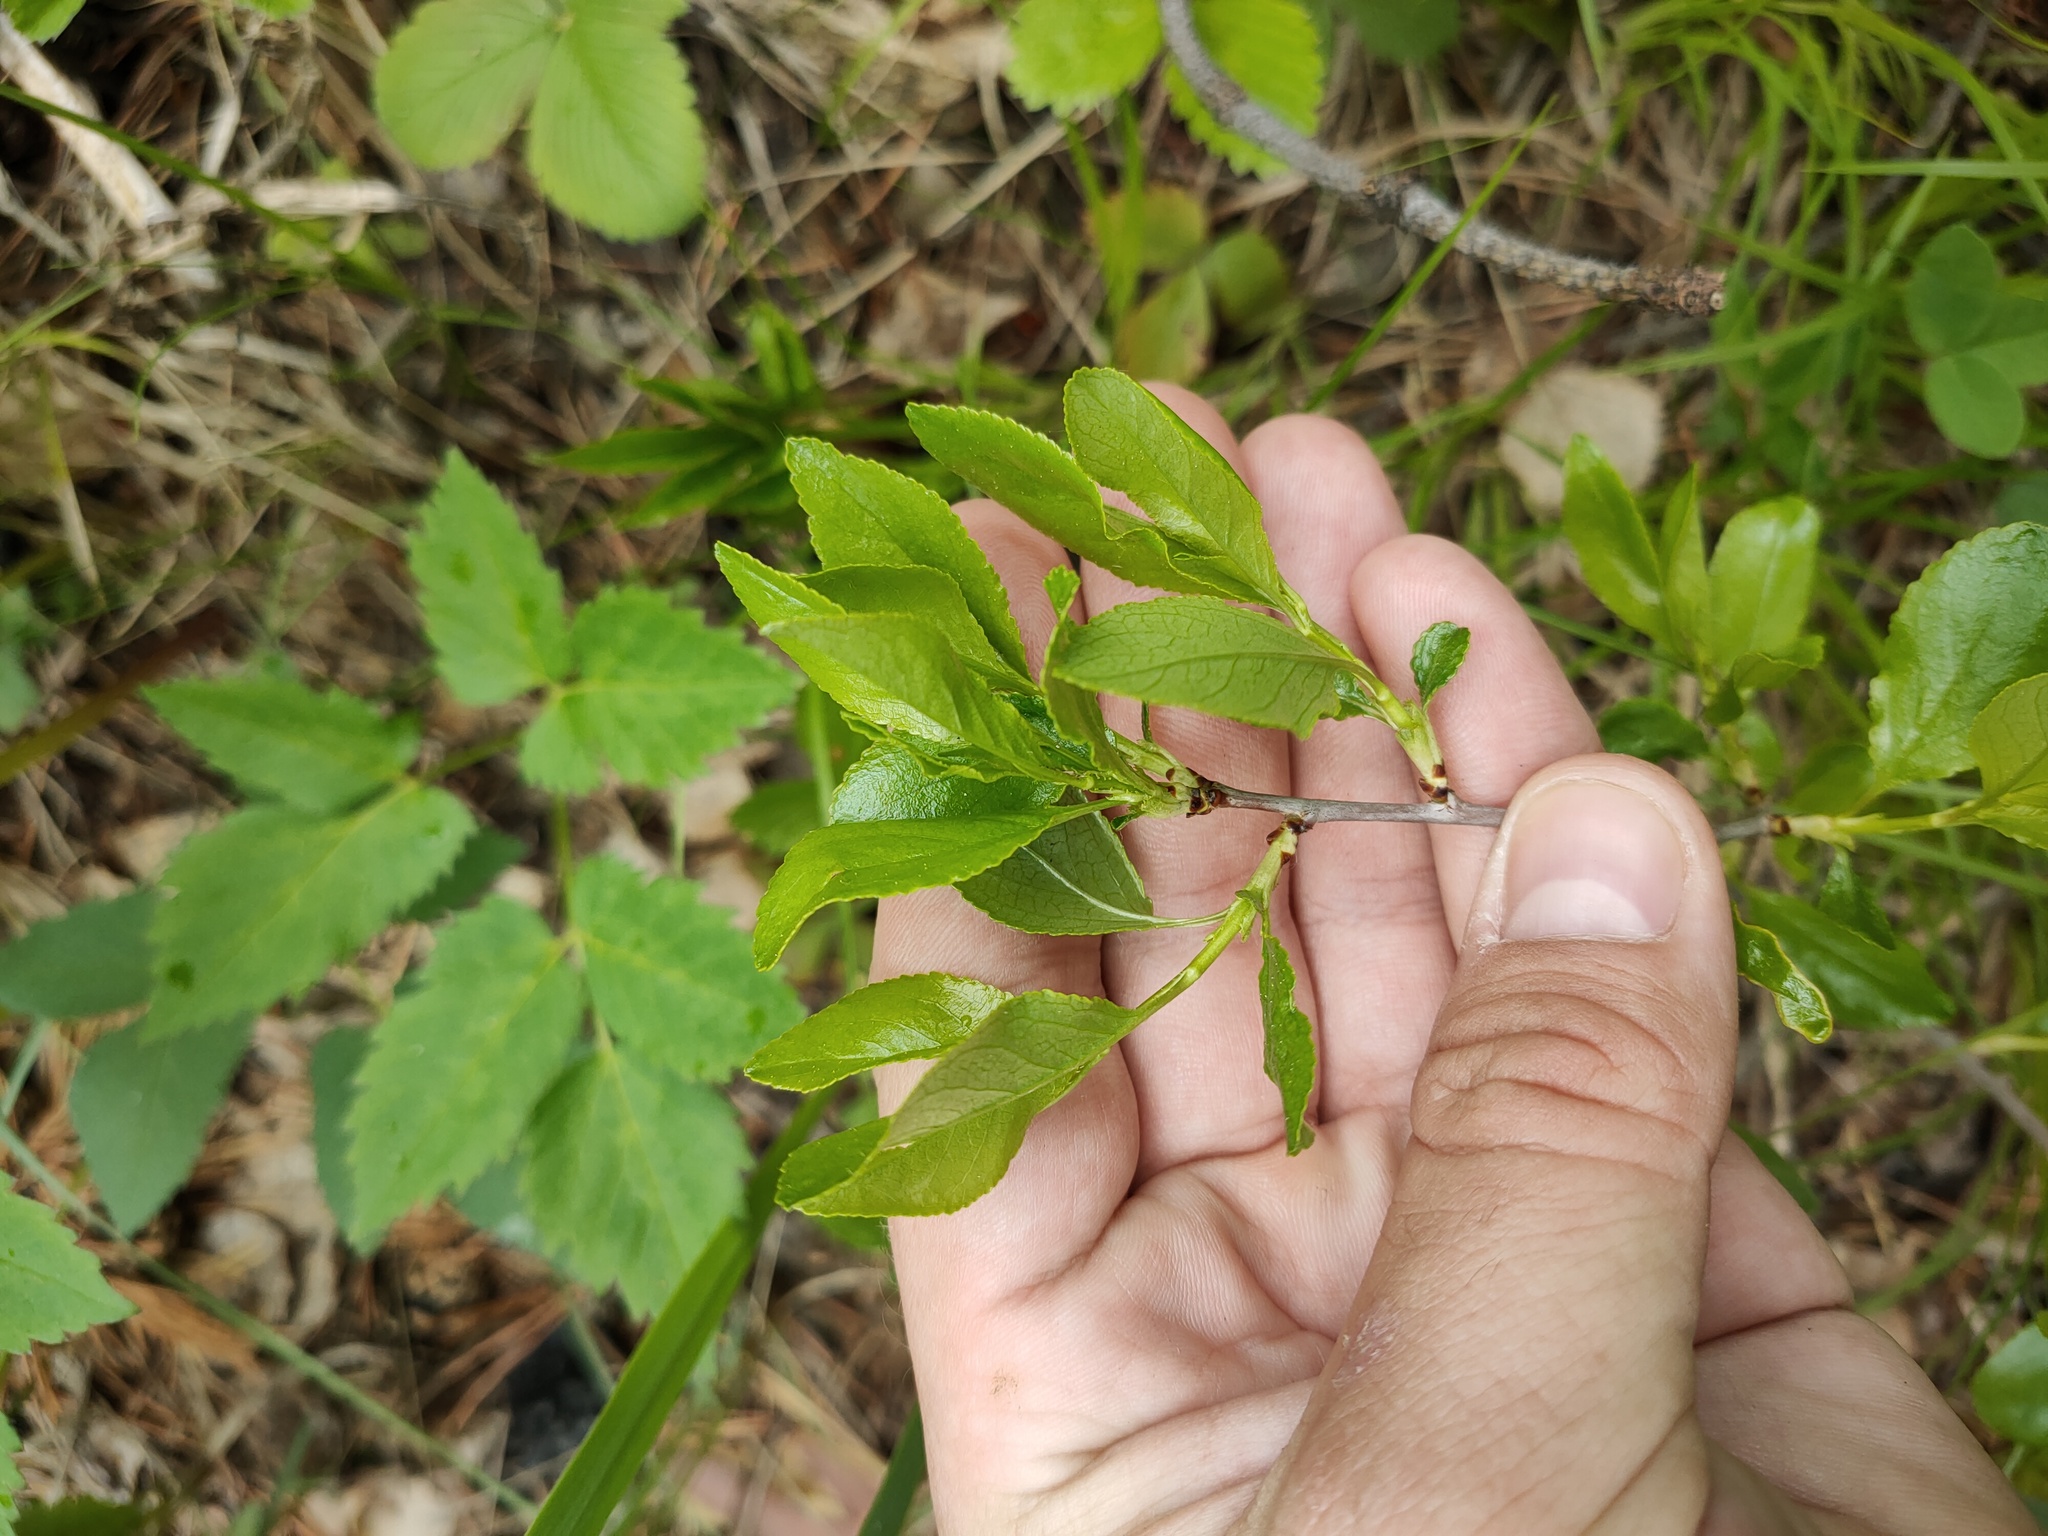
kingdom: Plantae
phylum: Tracheophyta
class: Magnoliopsida
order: Rosales
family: Rosaceae
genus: Prunus
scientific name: Prunus fruticosa
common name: European dwarf cherry
